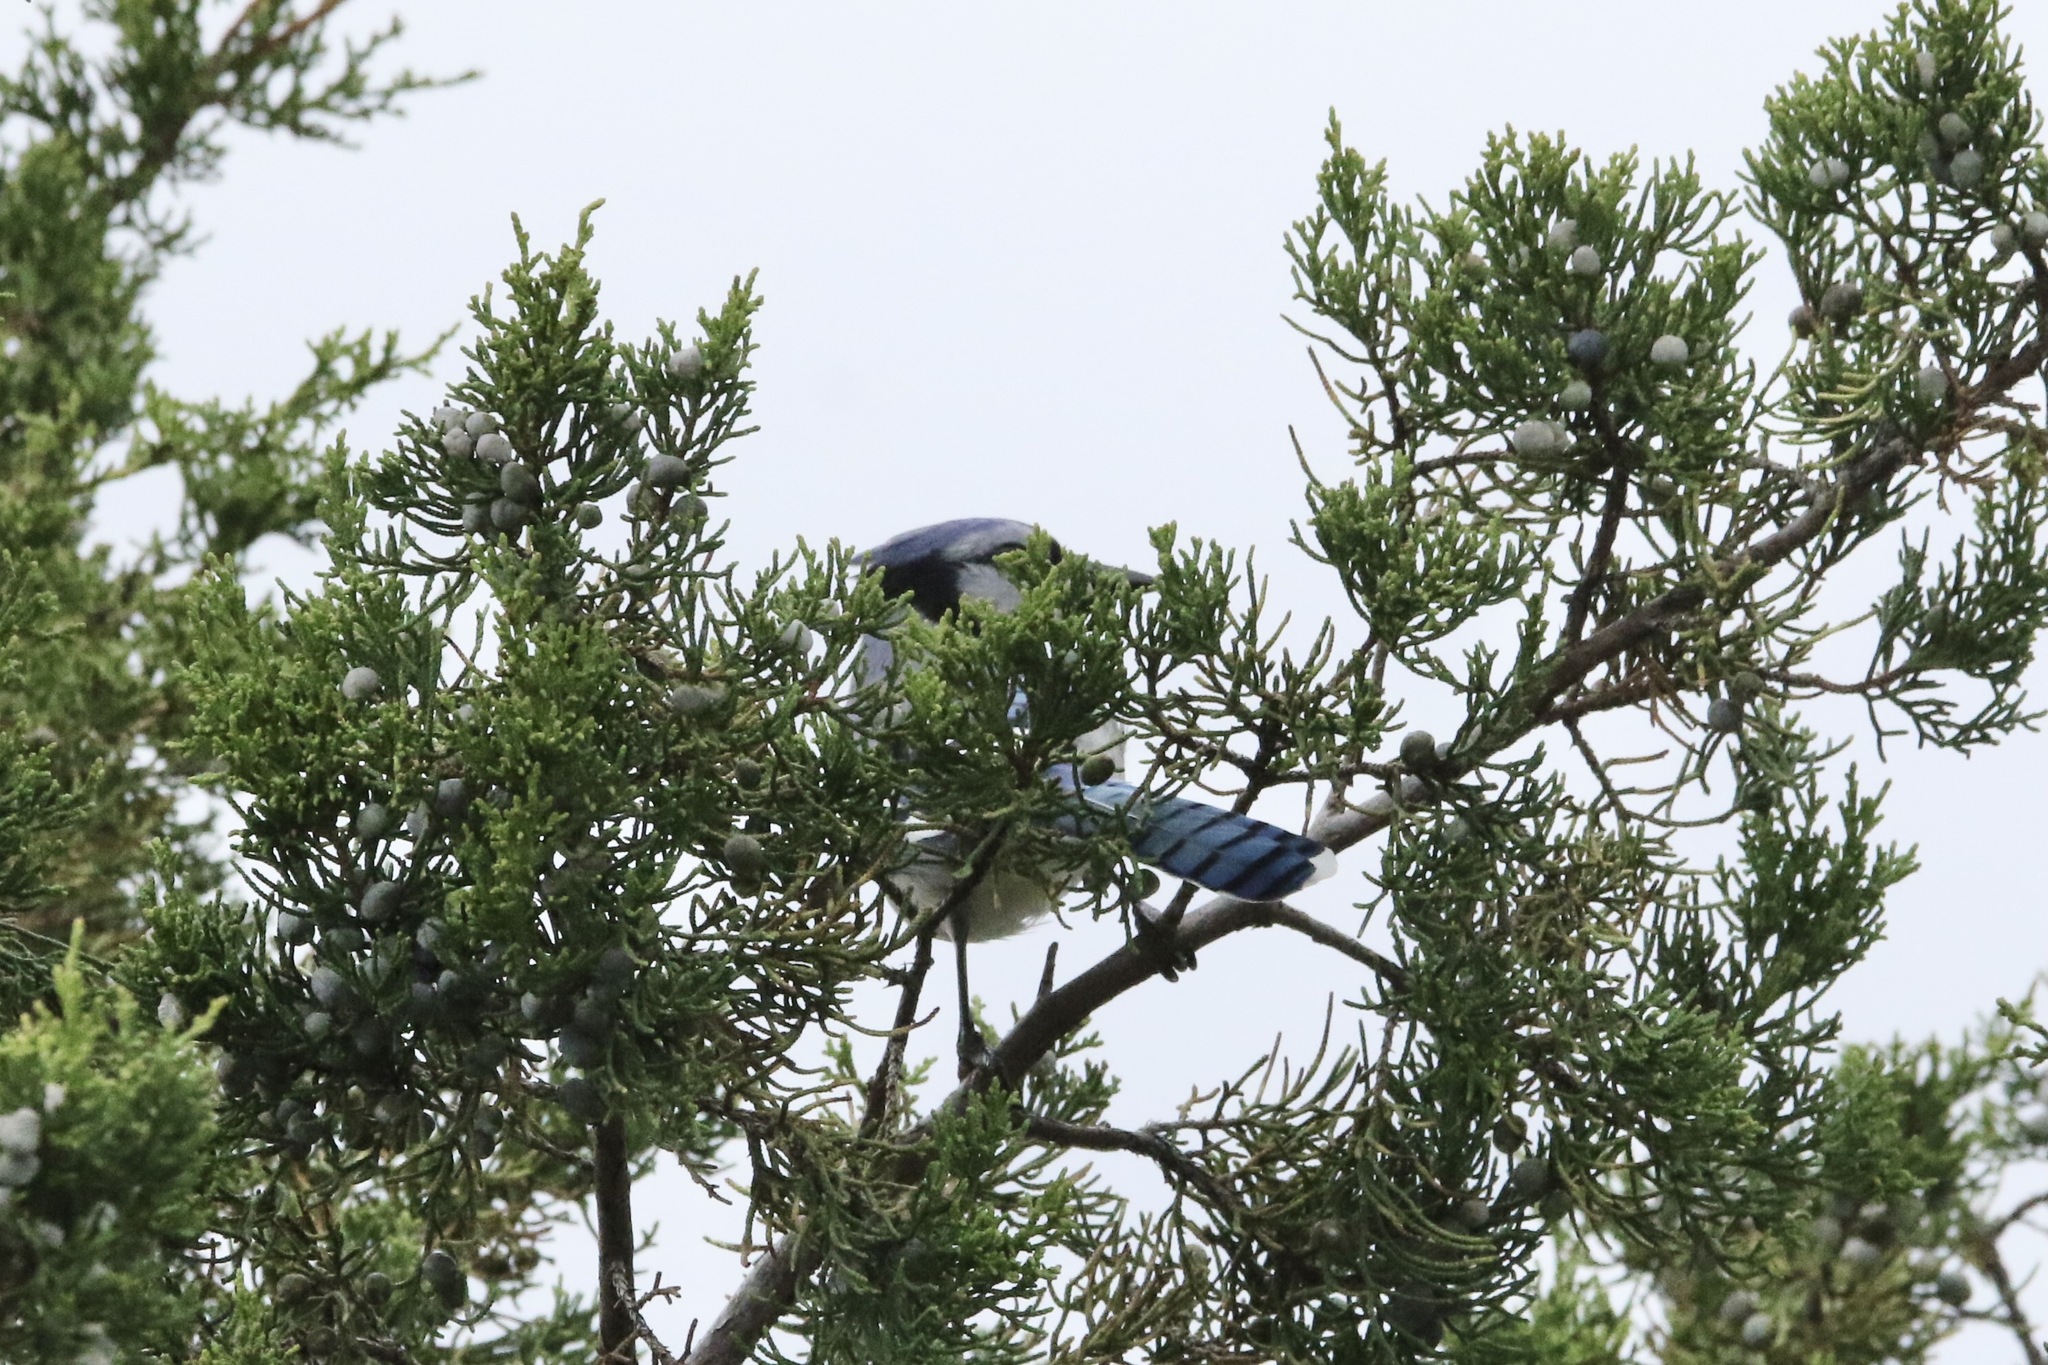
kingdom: Animalia
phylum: Chordata
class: Aves
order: Passeriformes
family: Corvidae
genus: Cyanocitta
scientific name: Cyanocitta cristata
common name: Blue jay
